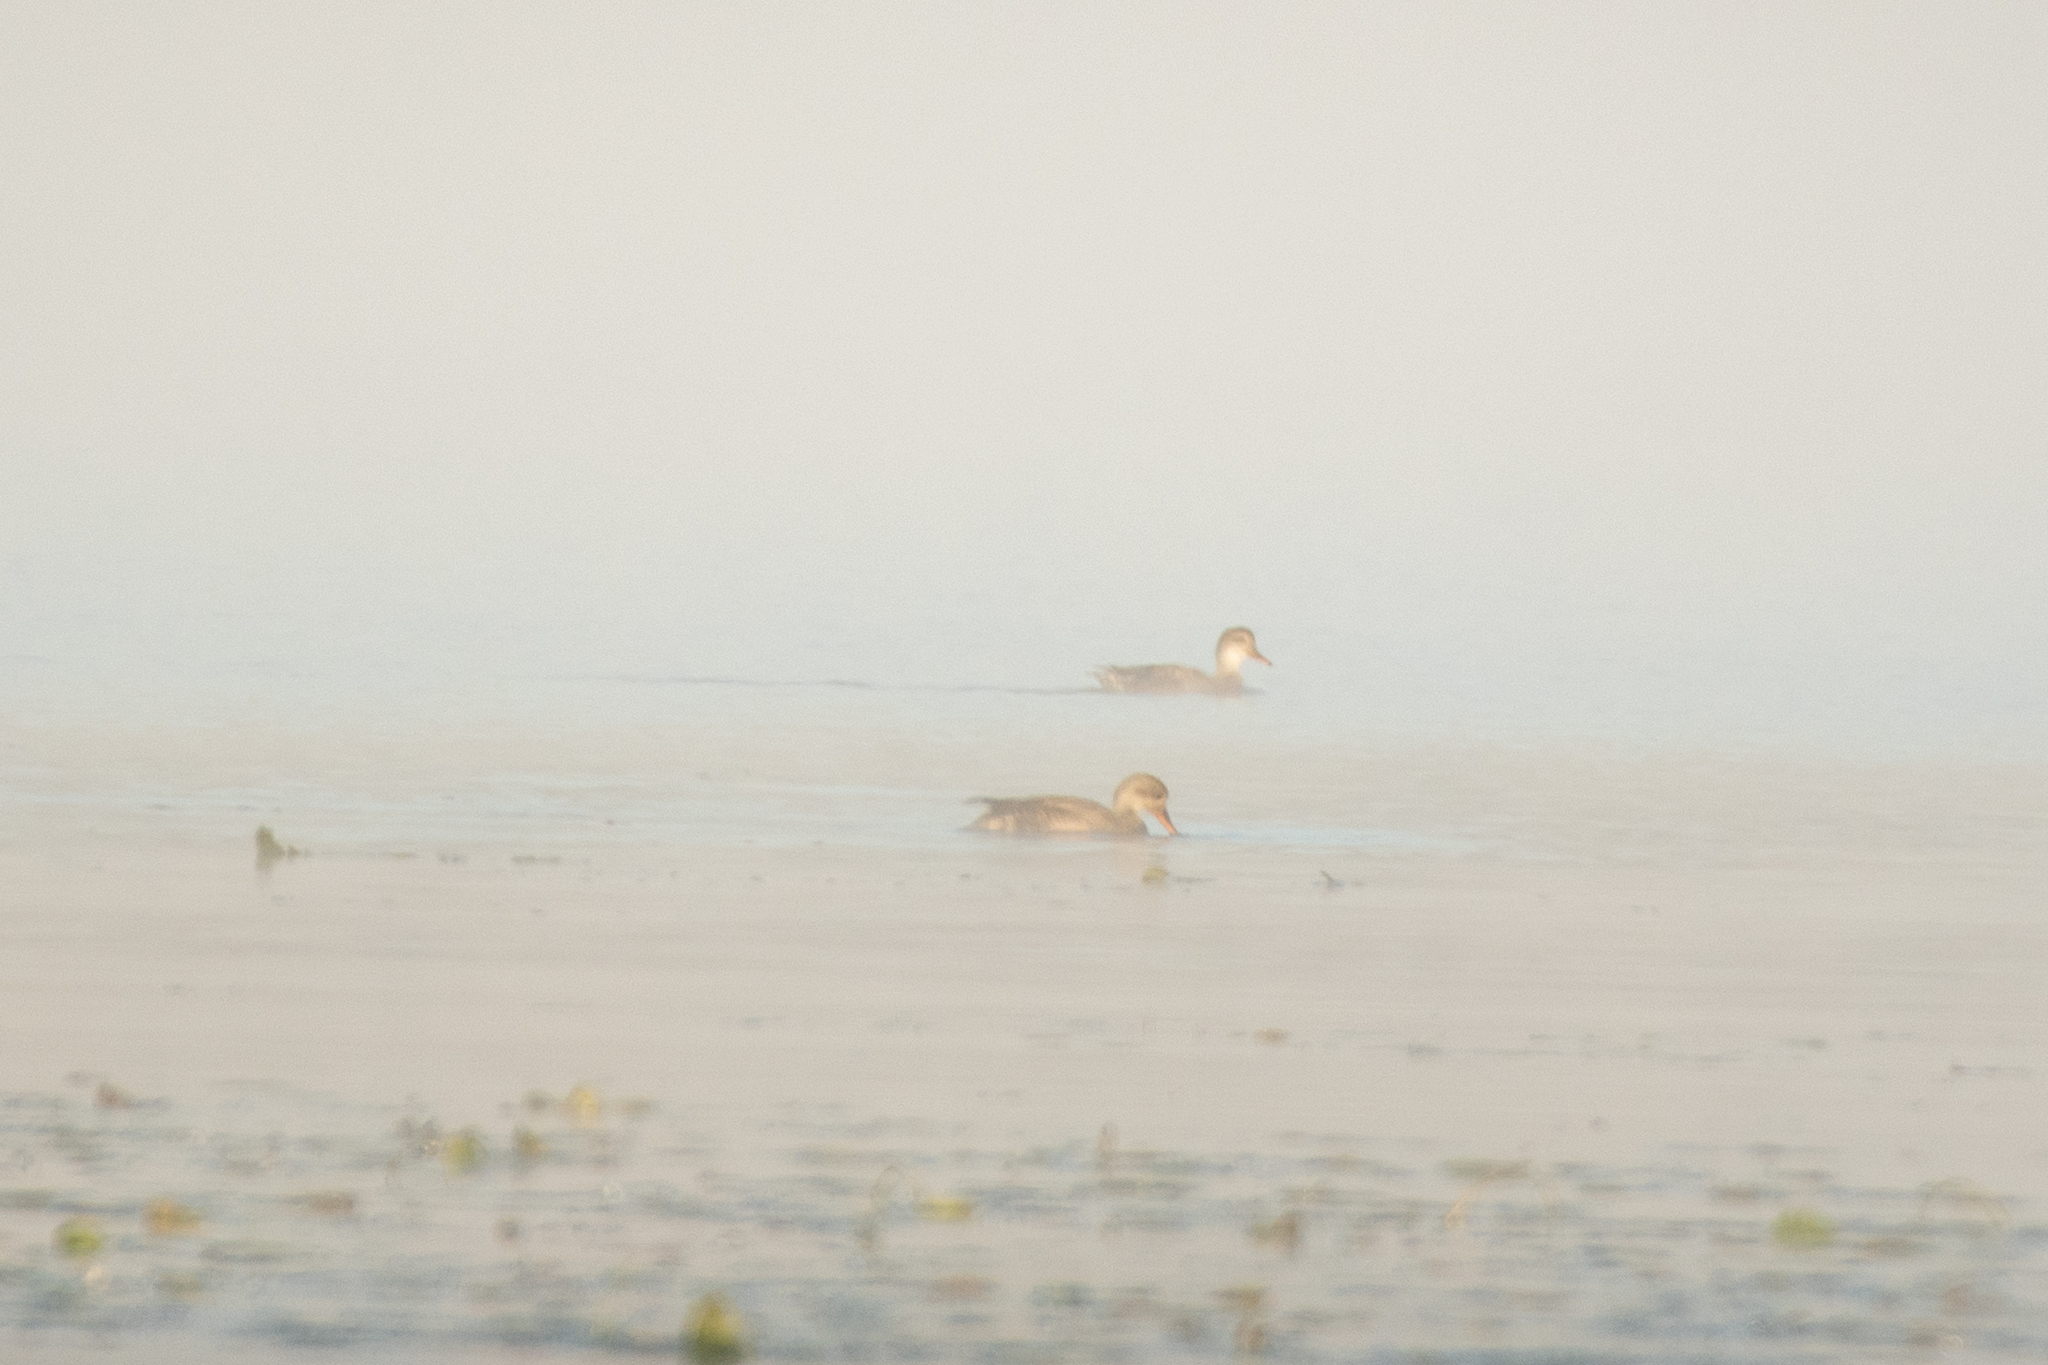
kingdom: Animalia
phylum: Chordata
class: Aves
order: Anseriformes
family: Anatidae
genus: Mareca
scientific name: Mareca strepera
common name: Gadwall
